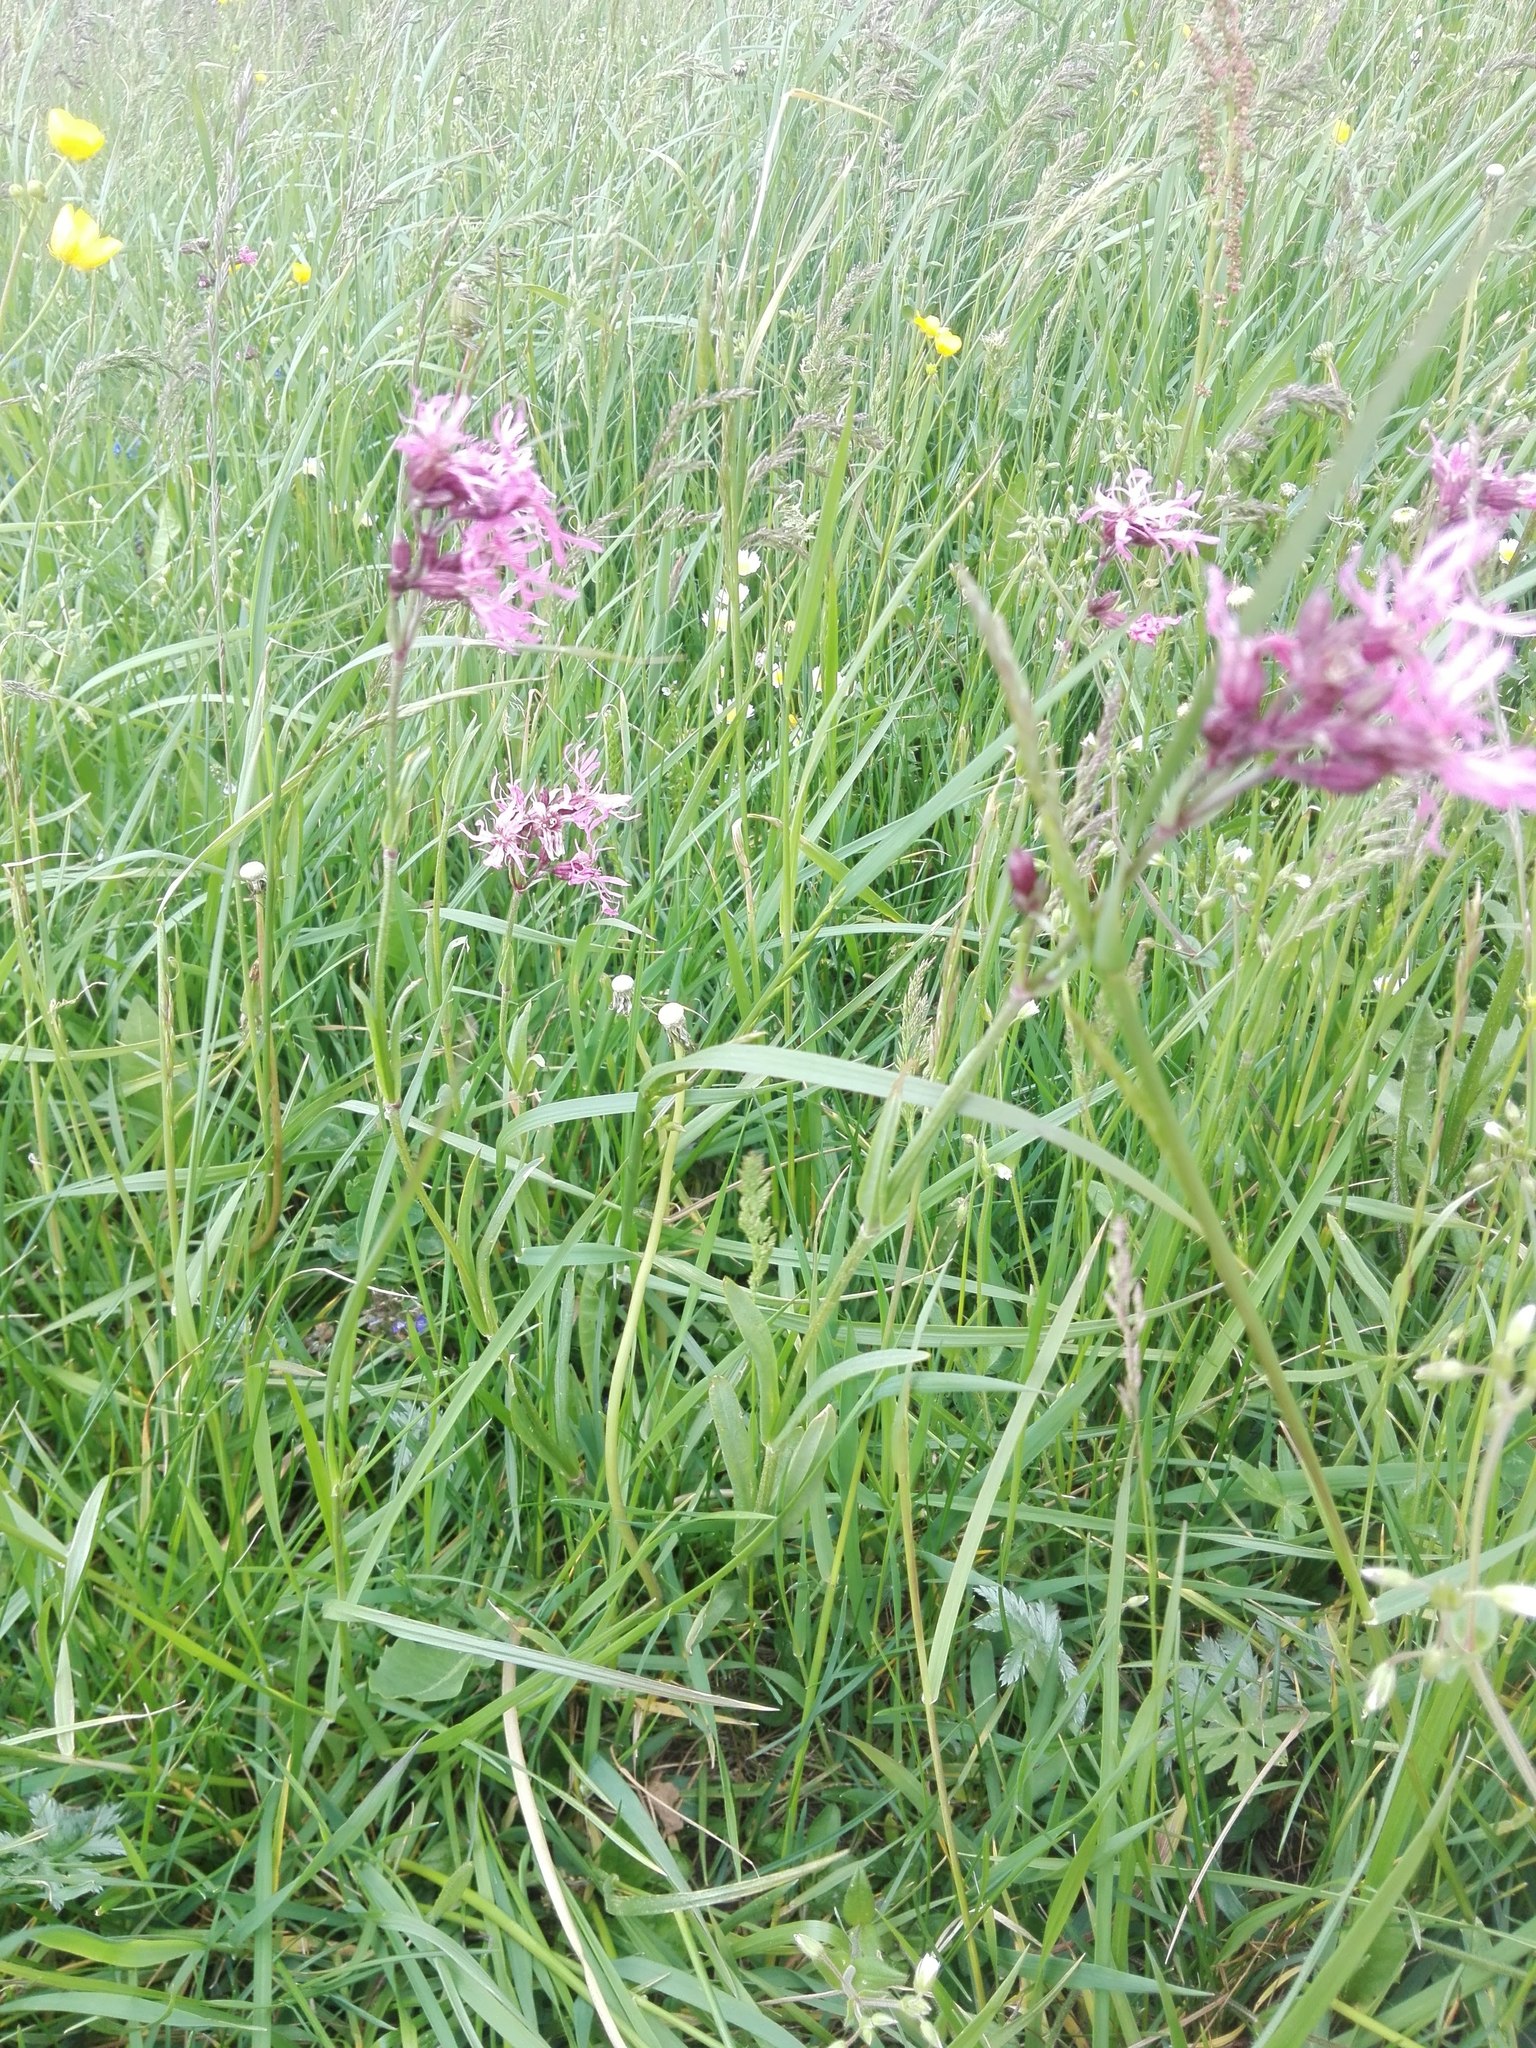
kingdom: Plantae
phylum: Tracheophyta
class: Magnoliopsida
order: Caryophyllales
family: Caryophyllaceae
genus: Silene
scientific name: Silene flos-cuculi
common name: Ragged-robin
